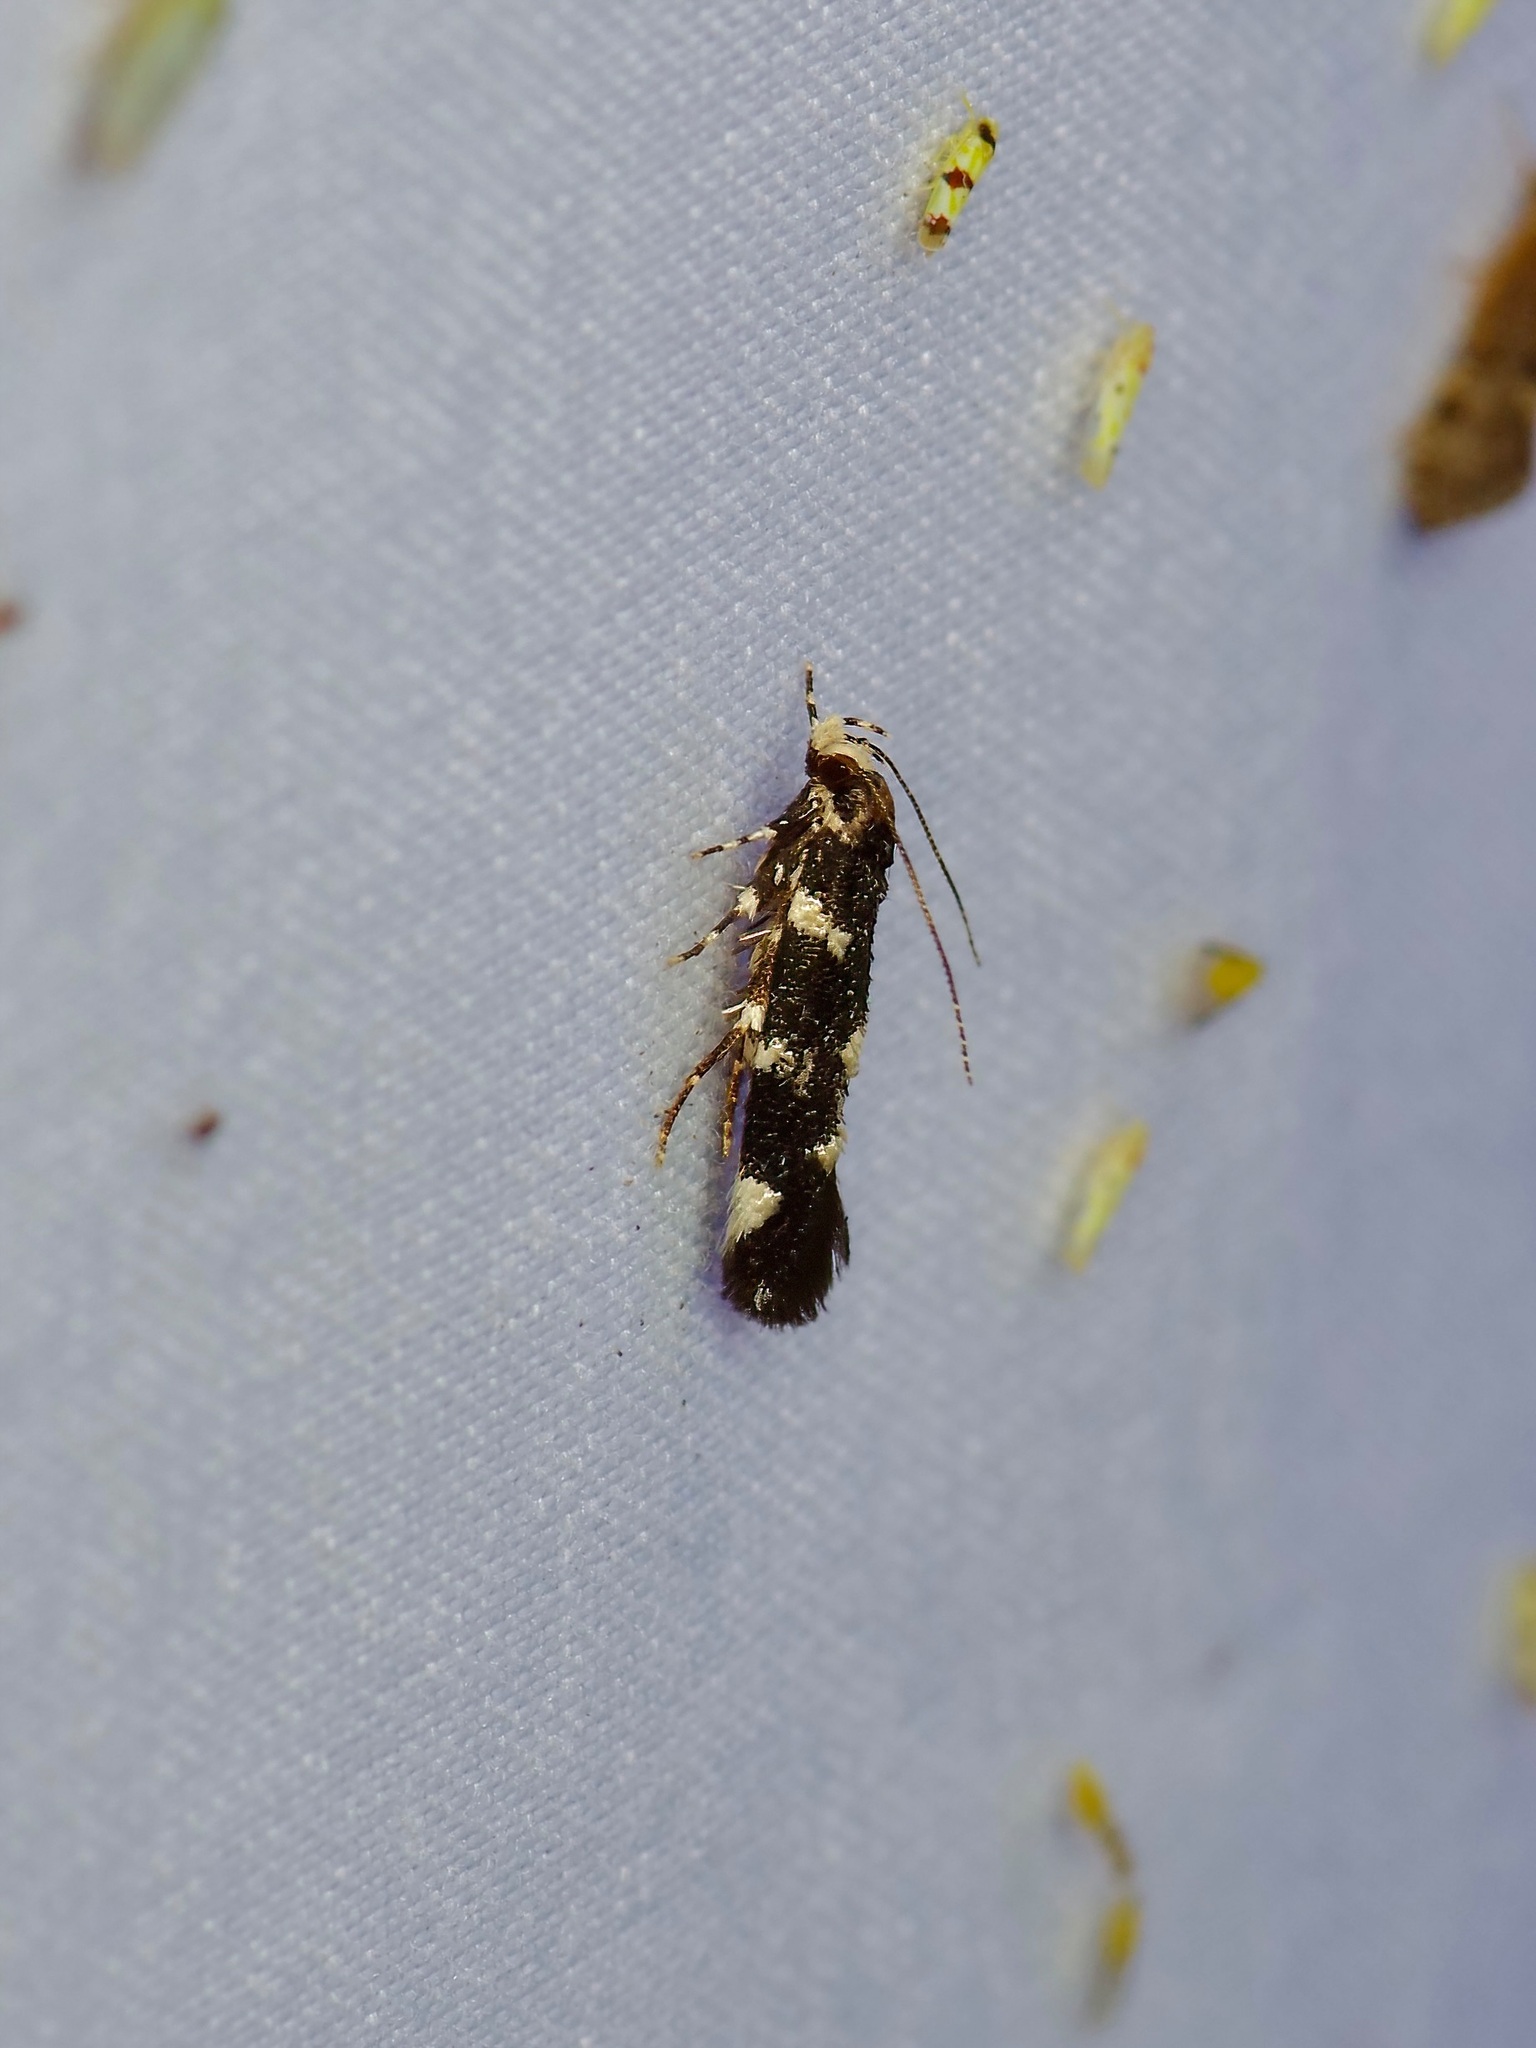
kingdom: Animalia
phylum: Arthropoda
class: Insecta
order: Lepidoptera
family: Cosmopterigidae
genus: Eteobalea
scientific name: Eteobalea
